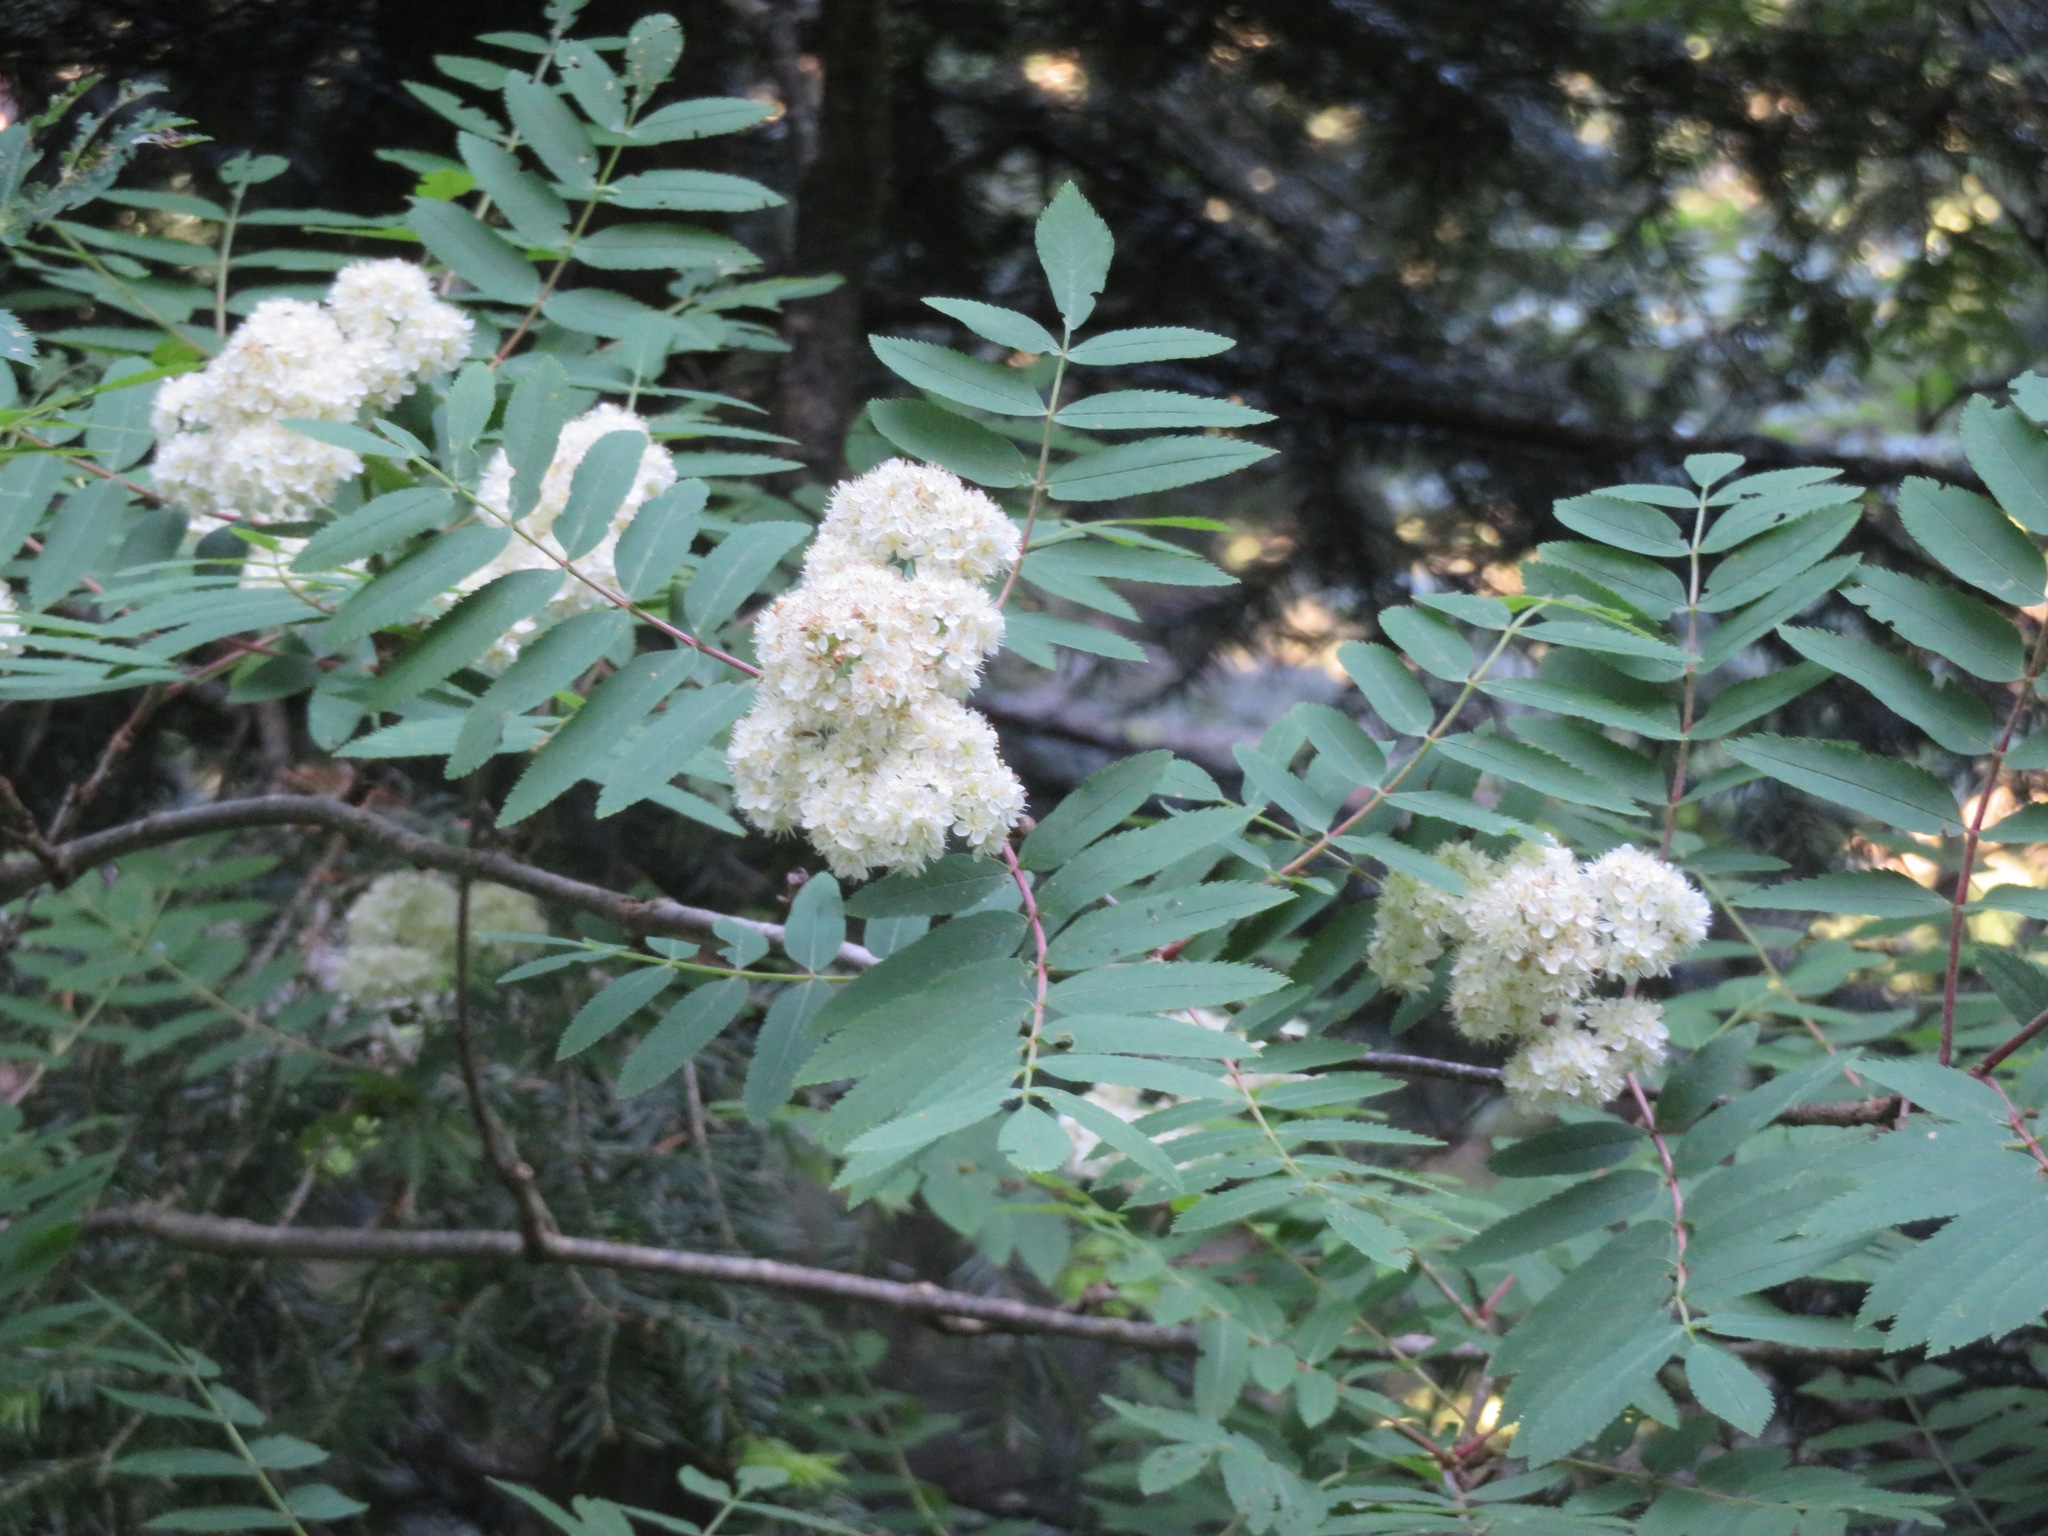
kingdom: Plantae
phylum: Tracheophyta
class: Magnoliopsida
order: Rosales
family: Rosaceae
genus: Sorbus
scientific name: Sorbus aucuparia
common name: Rowan
